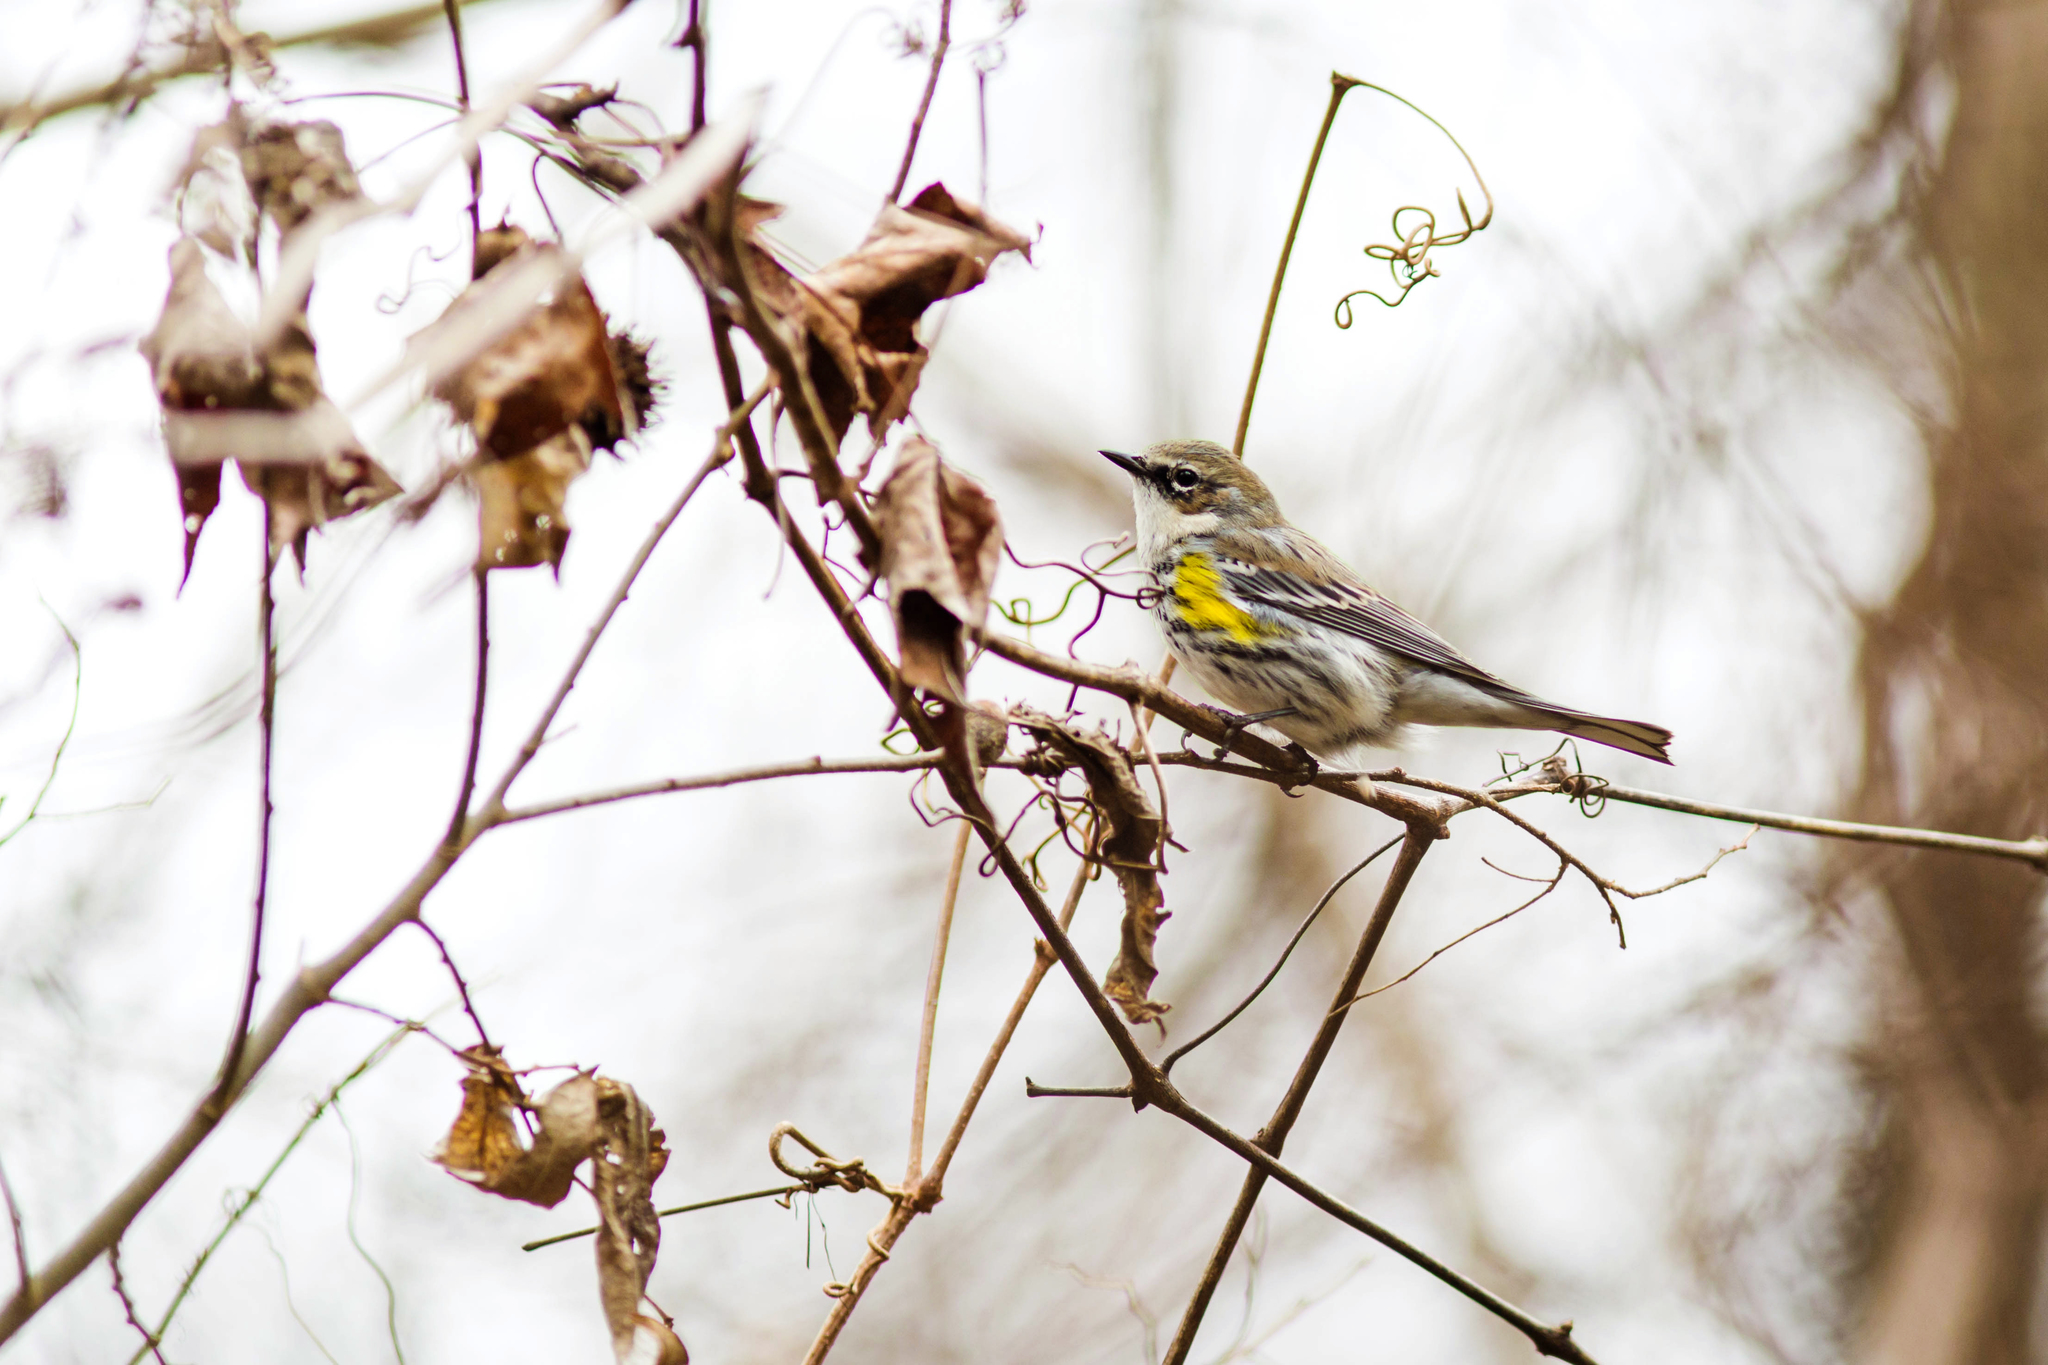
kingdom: Animalia
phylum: Chordata
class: Aves
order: Passeriformes
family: Parulidae
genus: Setophaga
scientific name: Setophaga coronata
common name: Myrtle warbler
